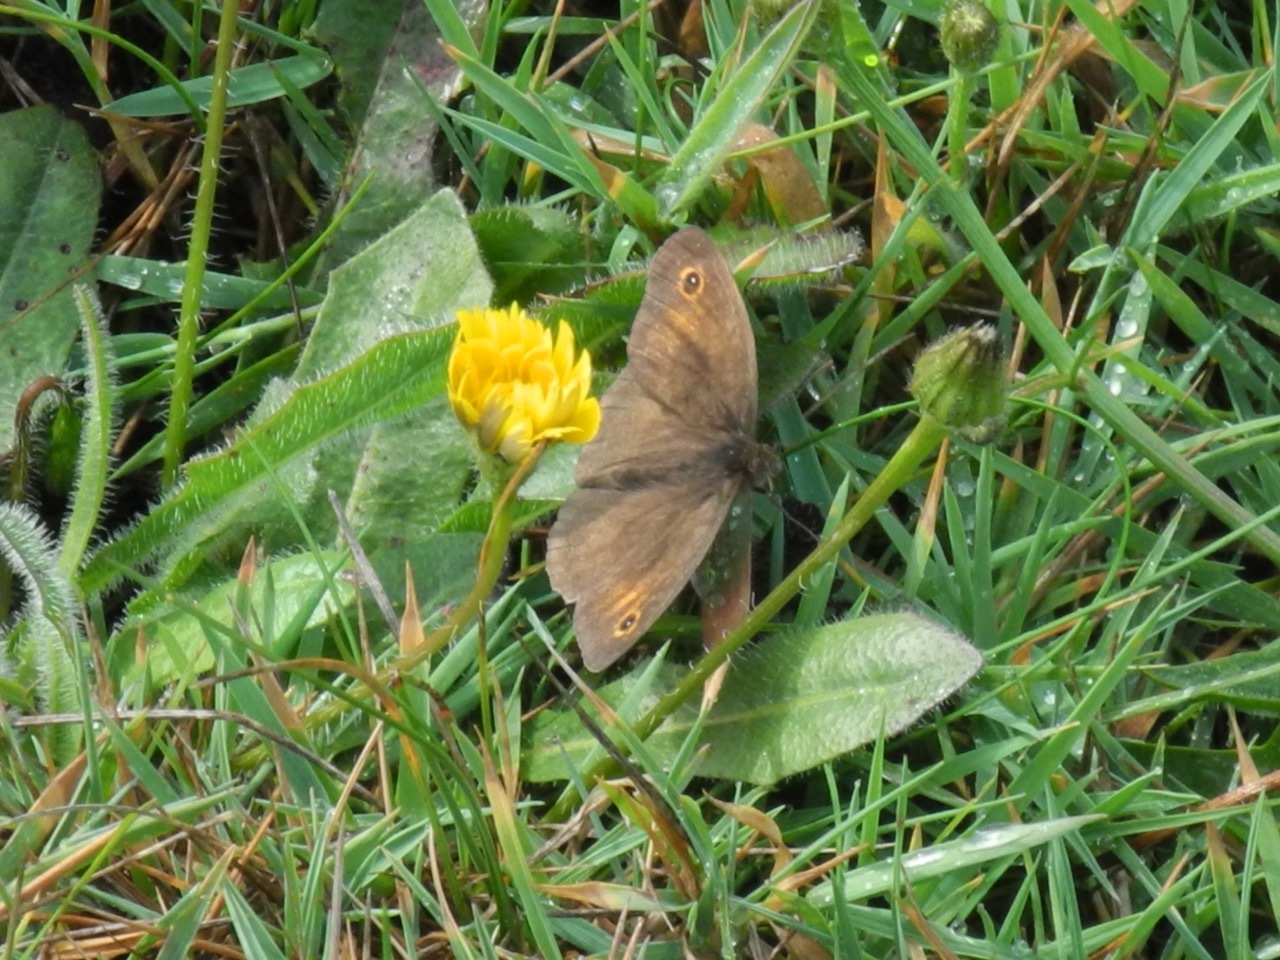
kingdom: Animalia
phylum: Arthropoda
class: Insecta
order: Lepidoptera
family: Nymphalidae
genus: Maniola
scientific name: Maniola jurtina
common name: Meadow brown
